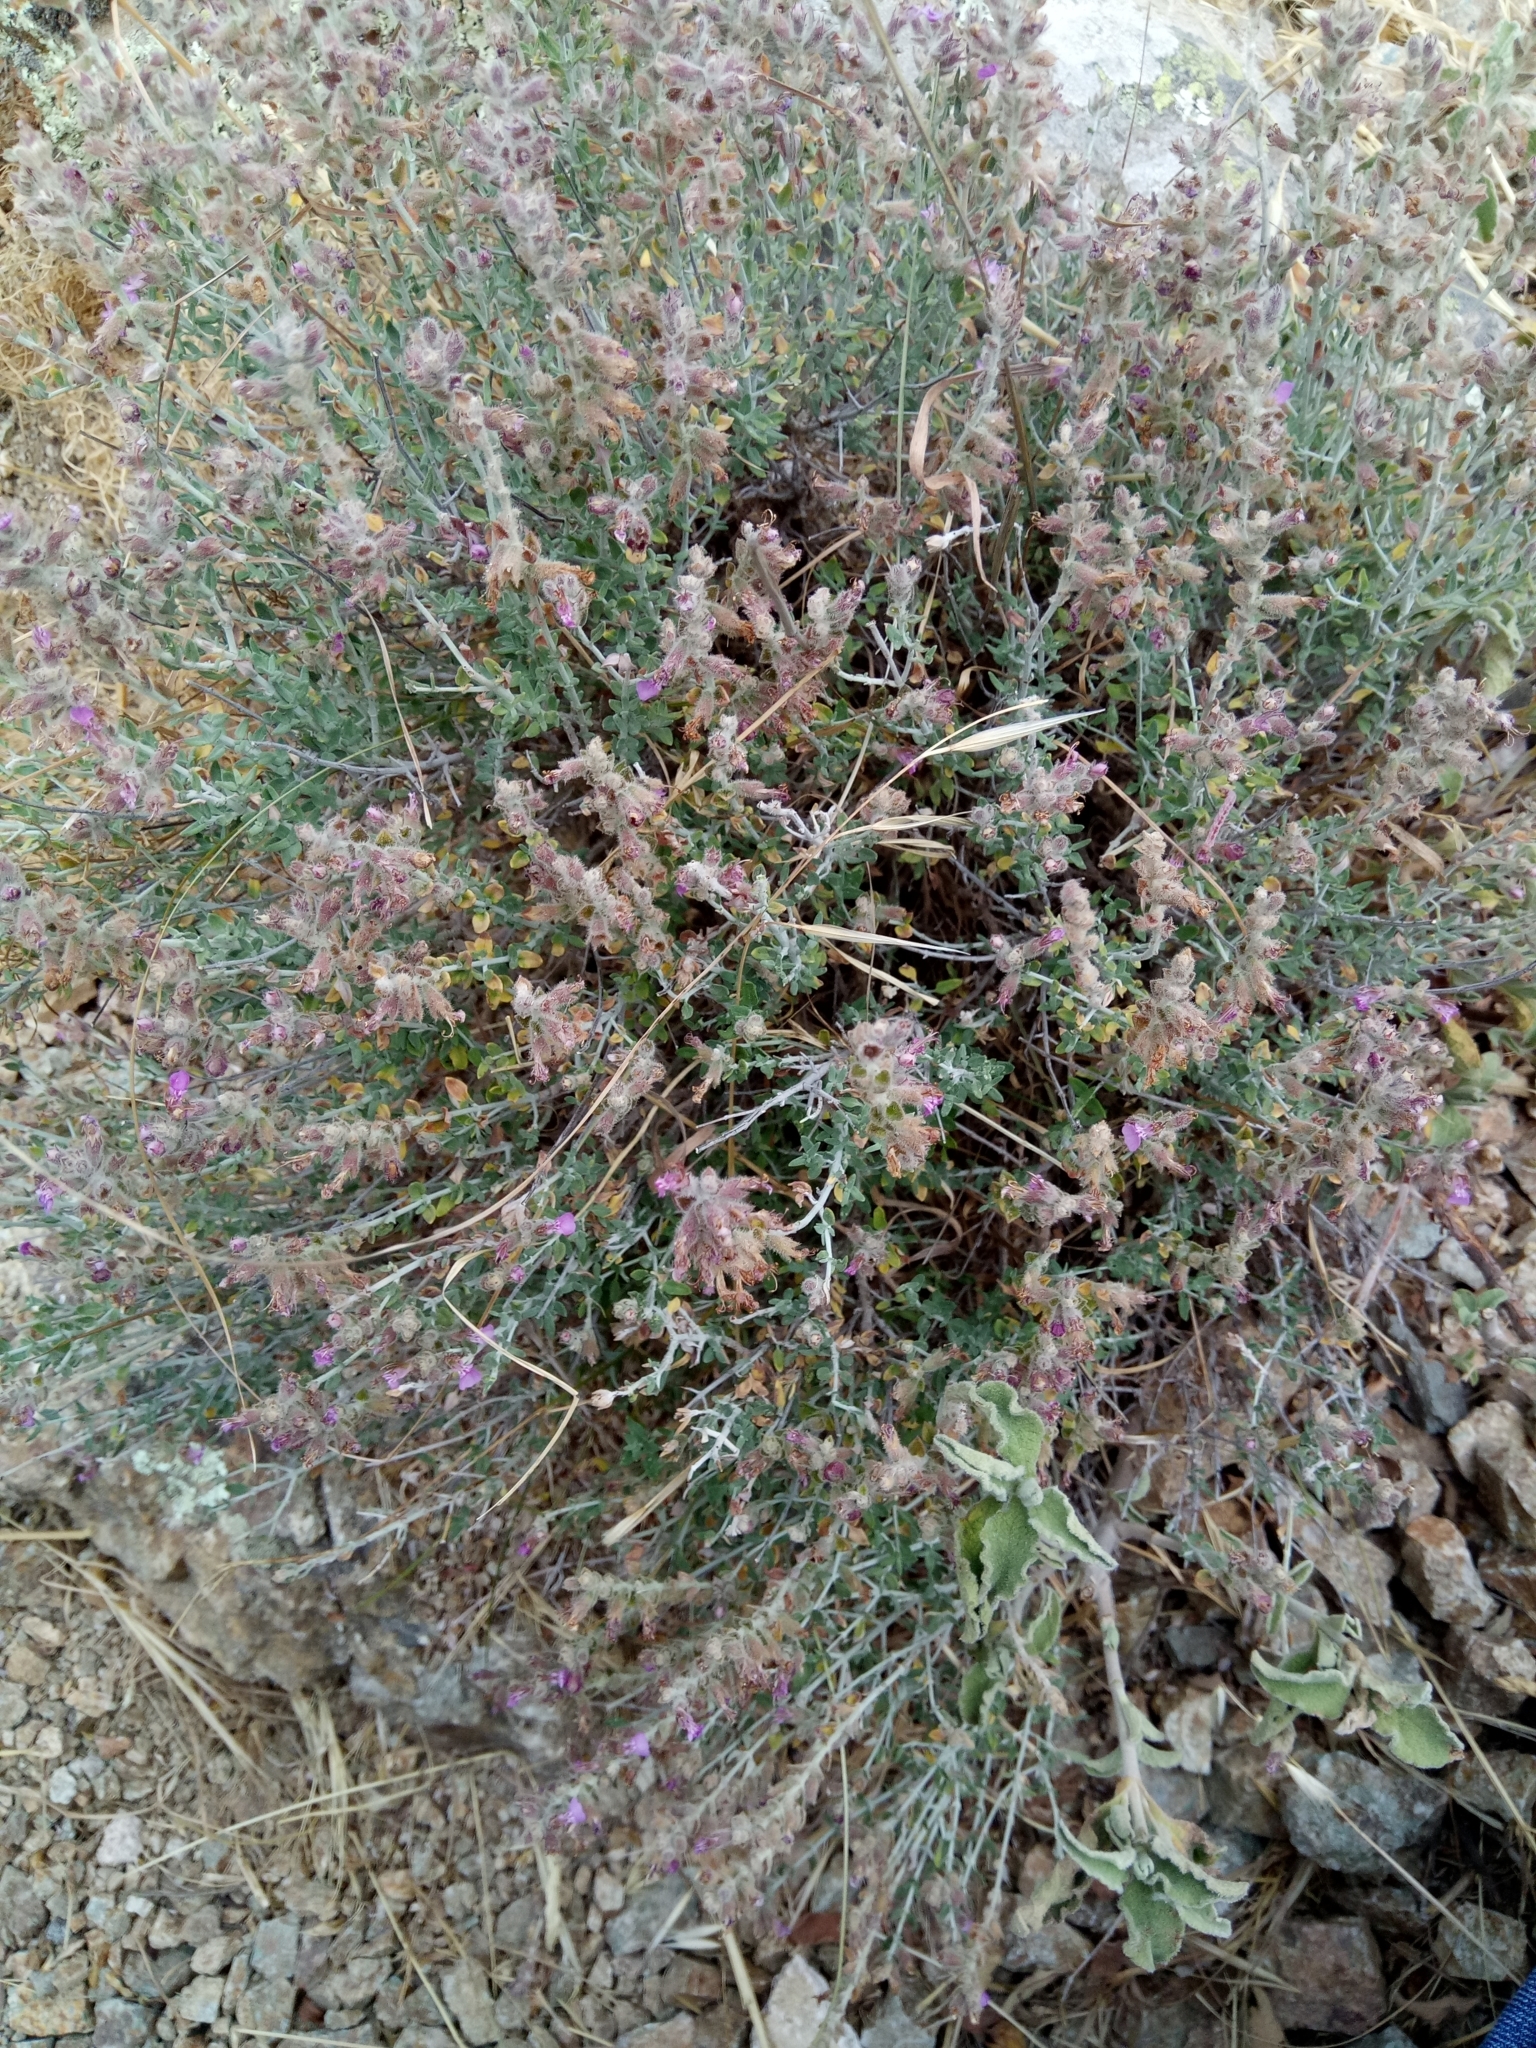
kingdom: Plantae
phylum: Tracheophyta
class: Magnoliopsida
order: Lamiales
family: Lamiaceae
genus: Teucrium
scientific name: Teucrium marum
